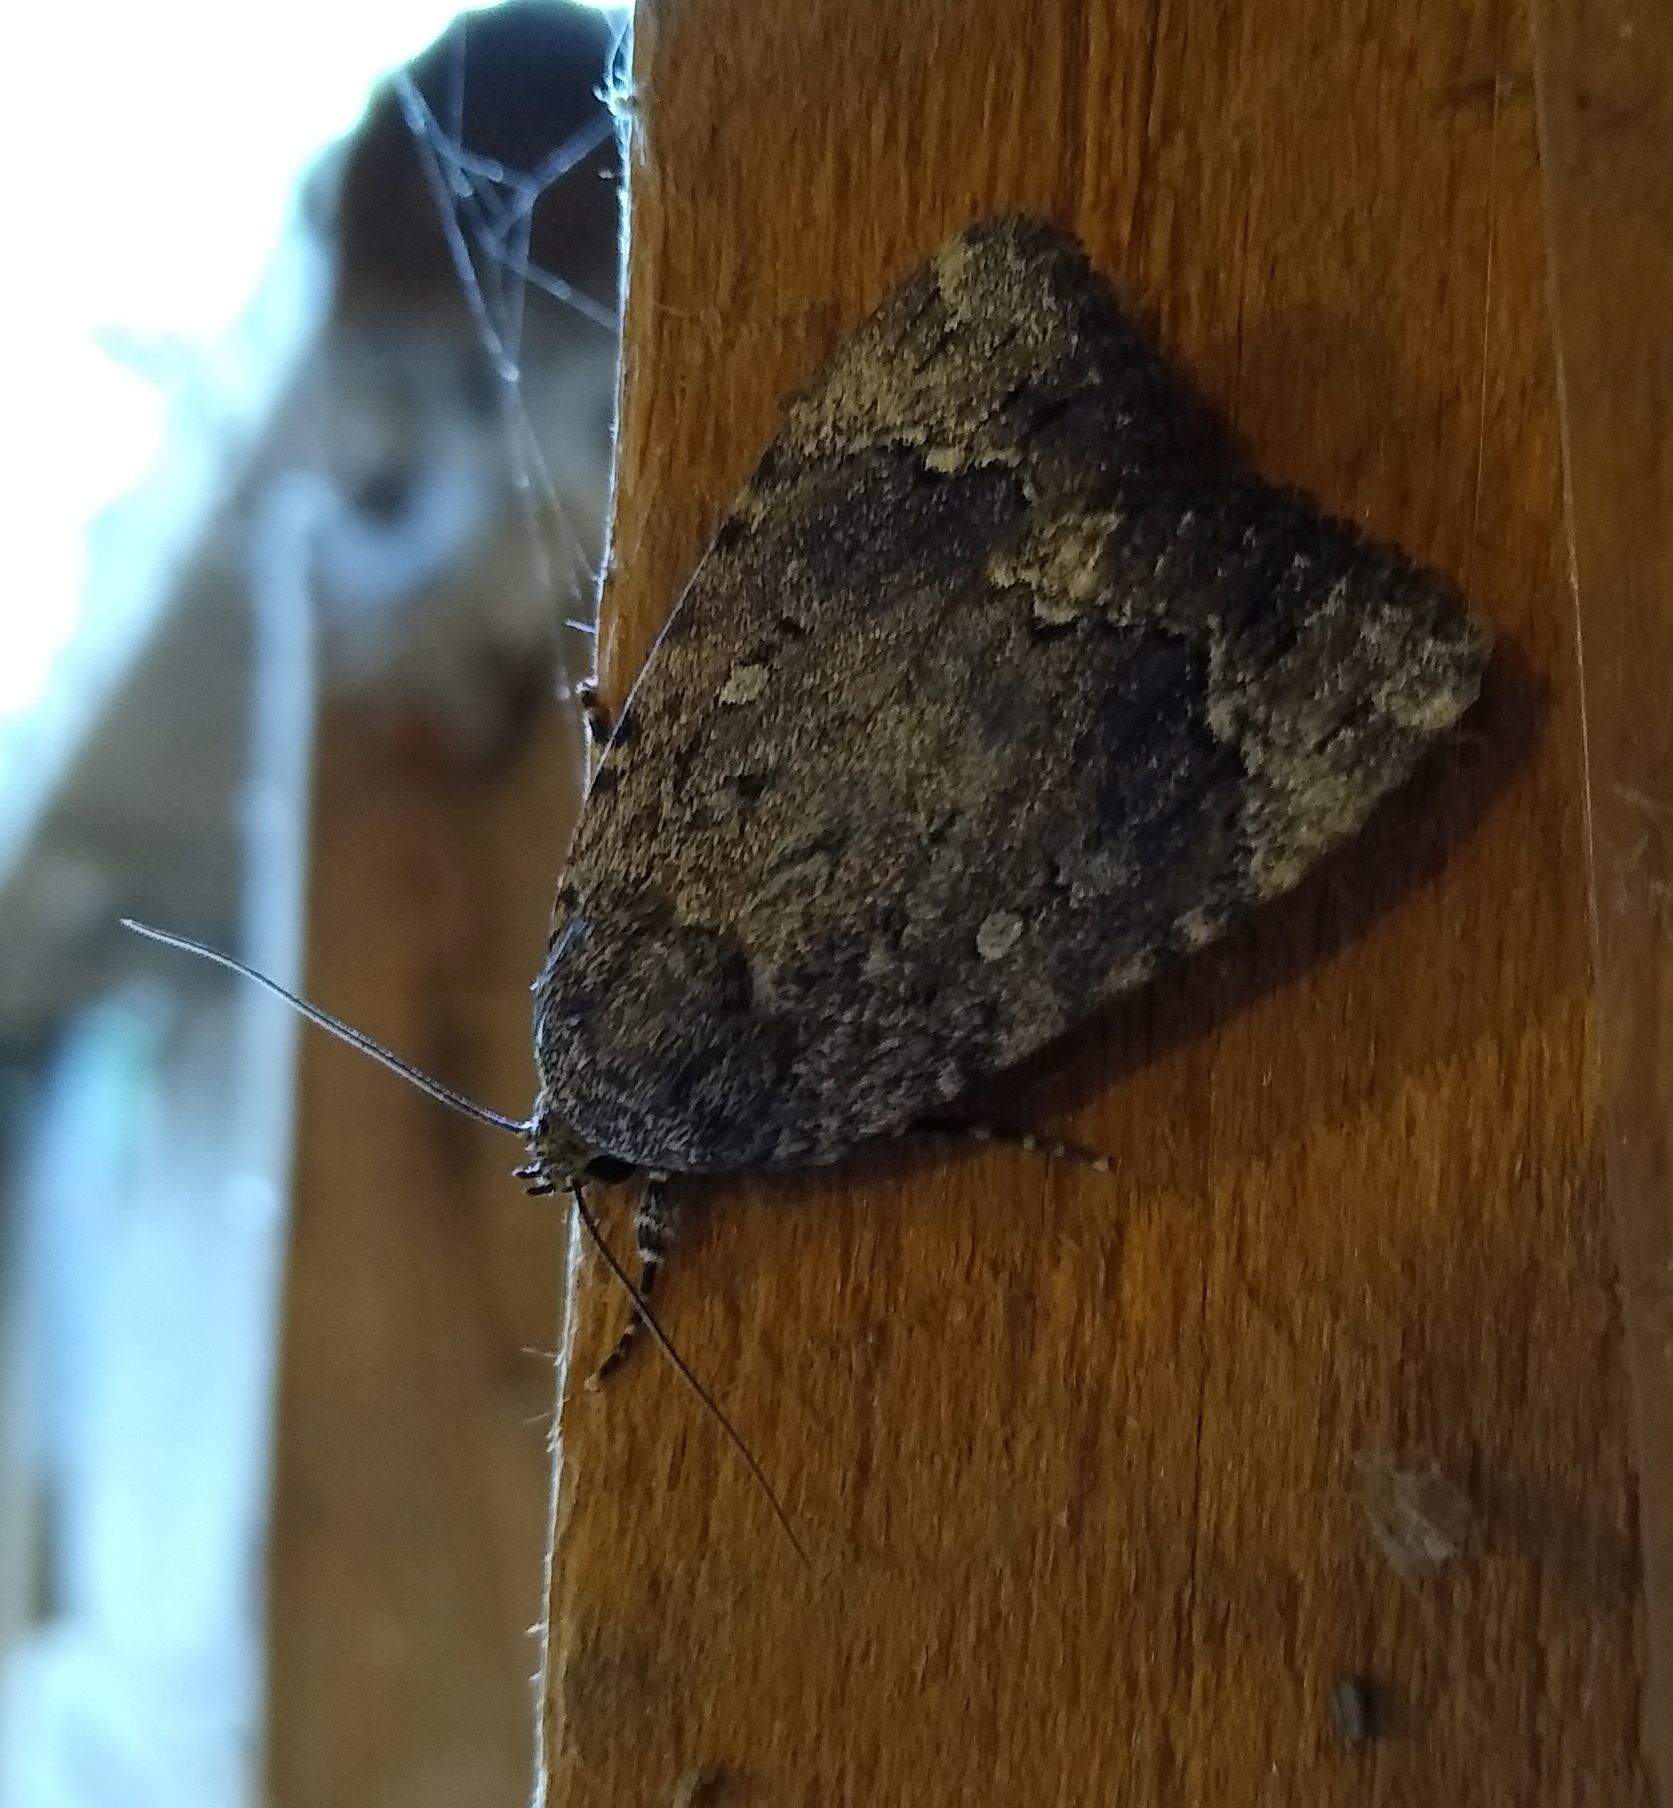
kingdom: Animalia
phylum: Arthropoda
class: Insecta
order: Lepidoptera
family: Noctuidae
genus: Amphipyra
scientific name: Amphipyra pyramidoides
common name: American copper underwing
